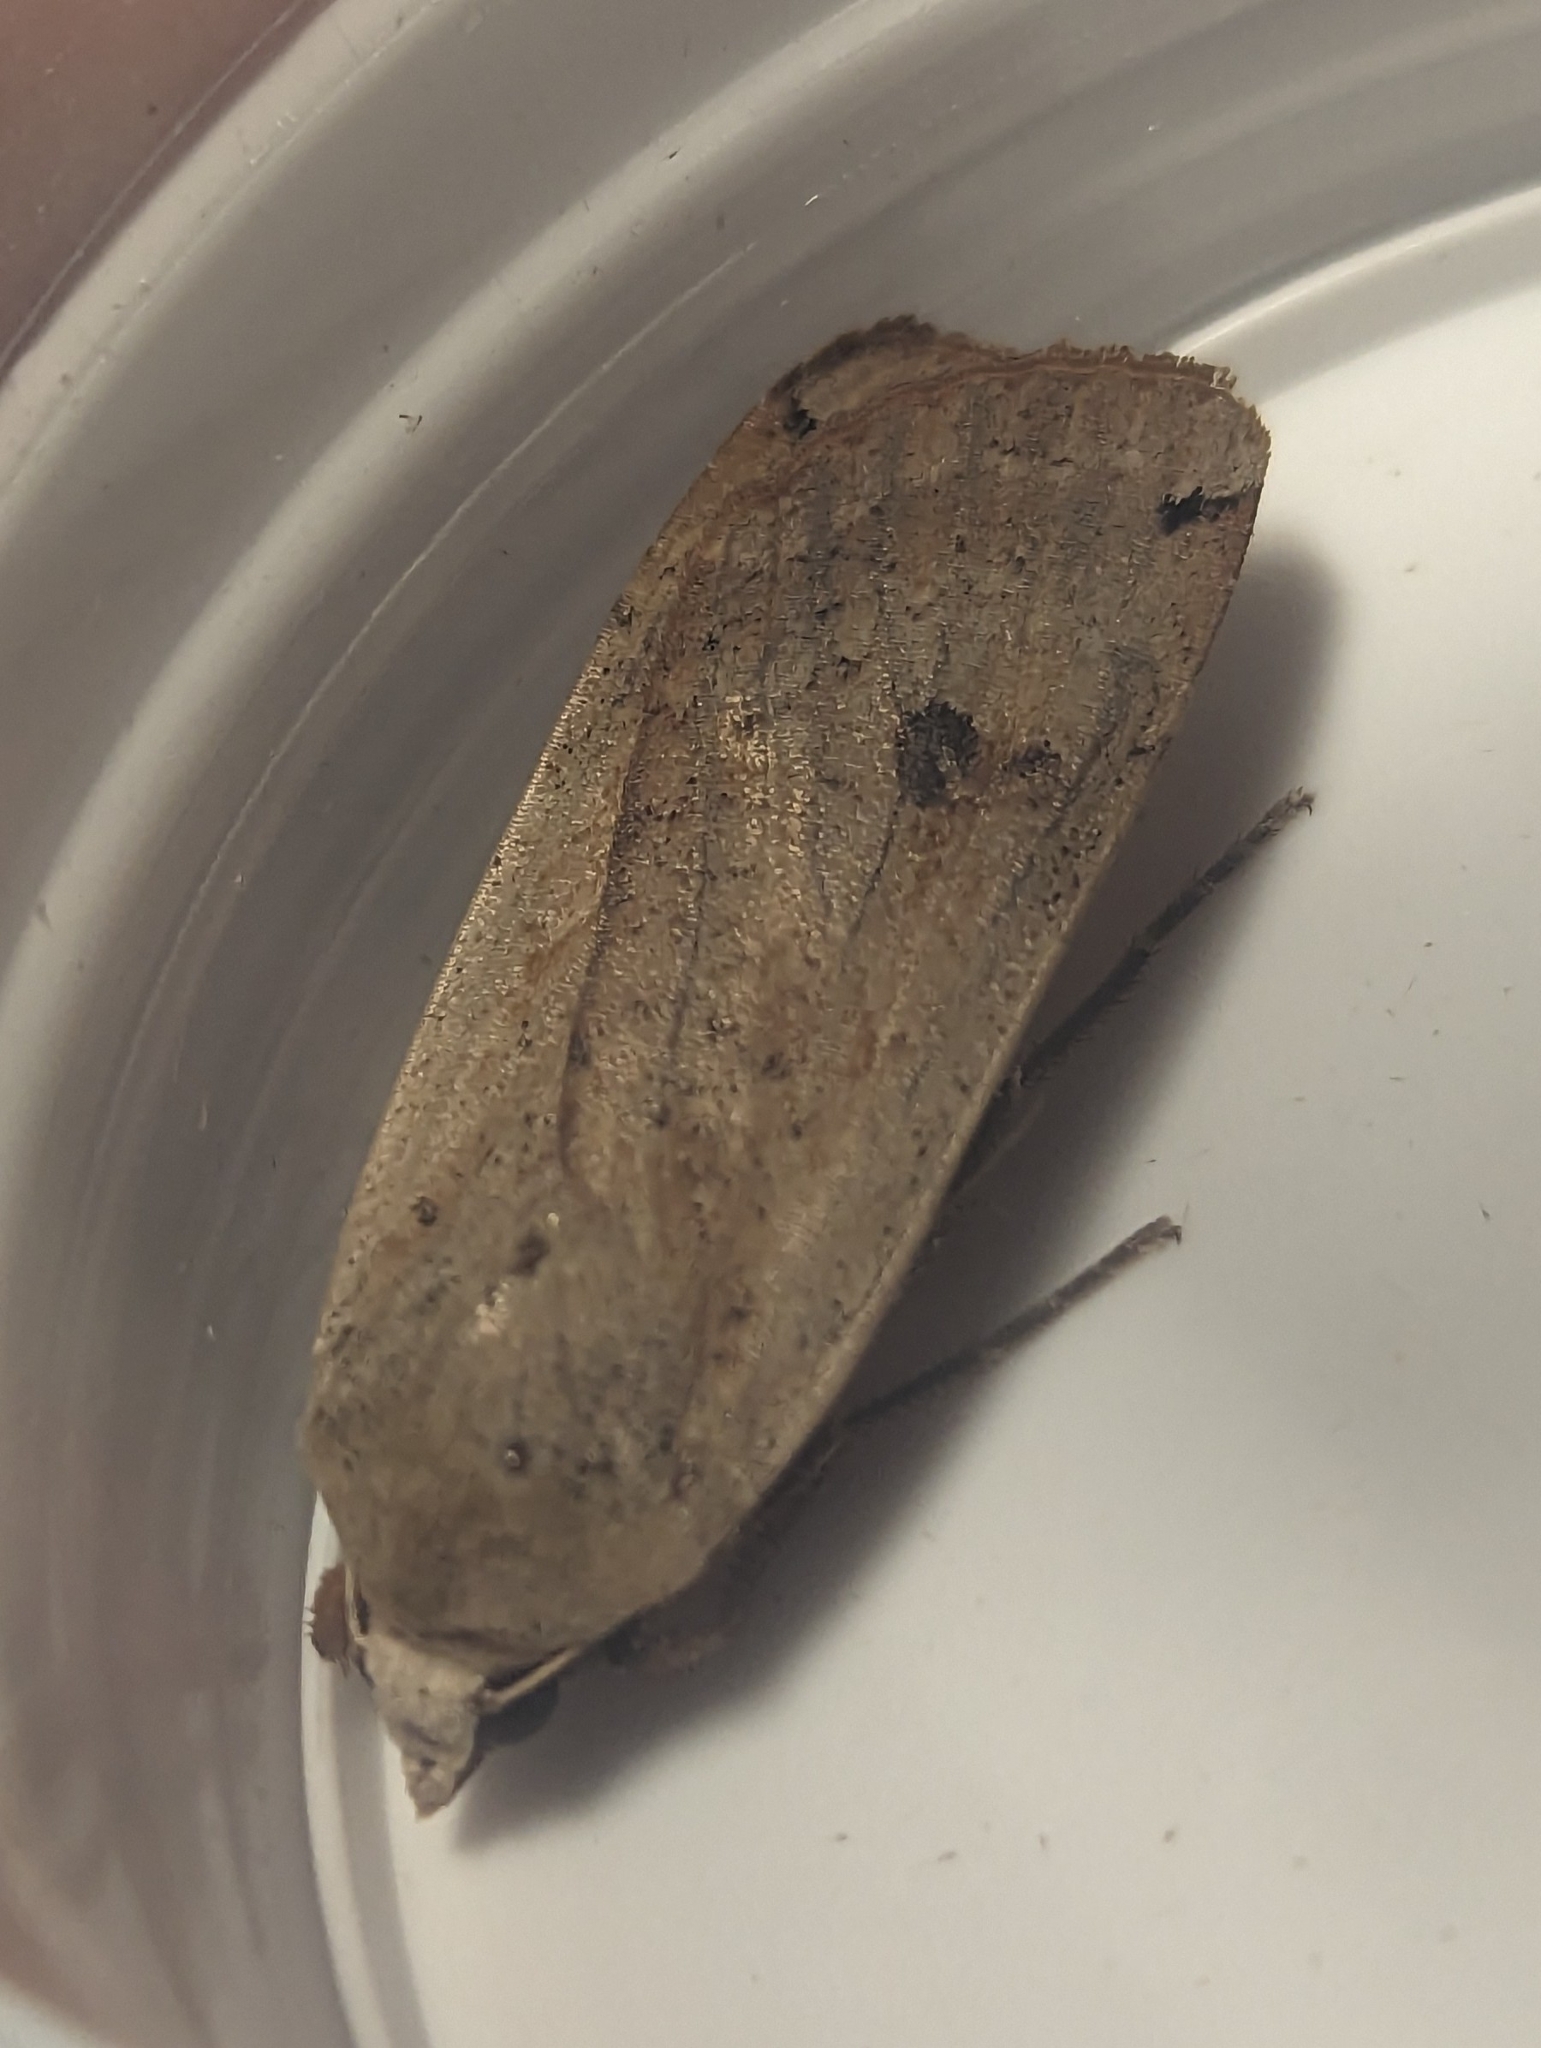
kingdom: Animalia
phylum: Arthropoda
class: Insecta
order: Lepidoptera
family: Noctuidae
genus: Noctua
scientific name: Noctua pronuba
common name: Large yellow underwing
